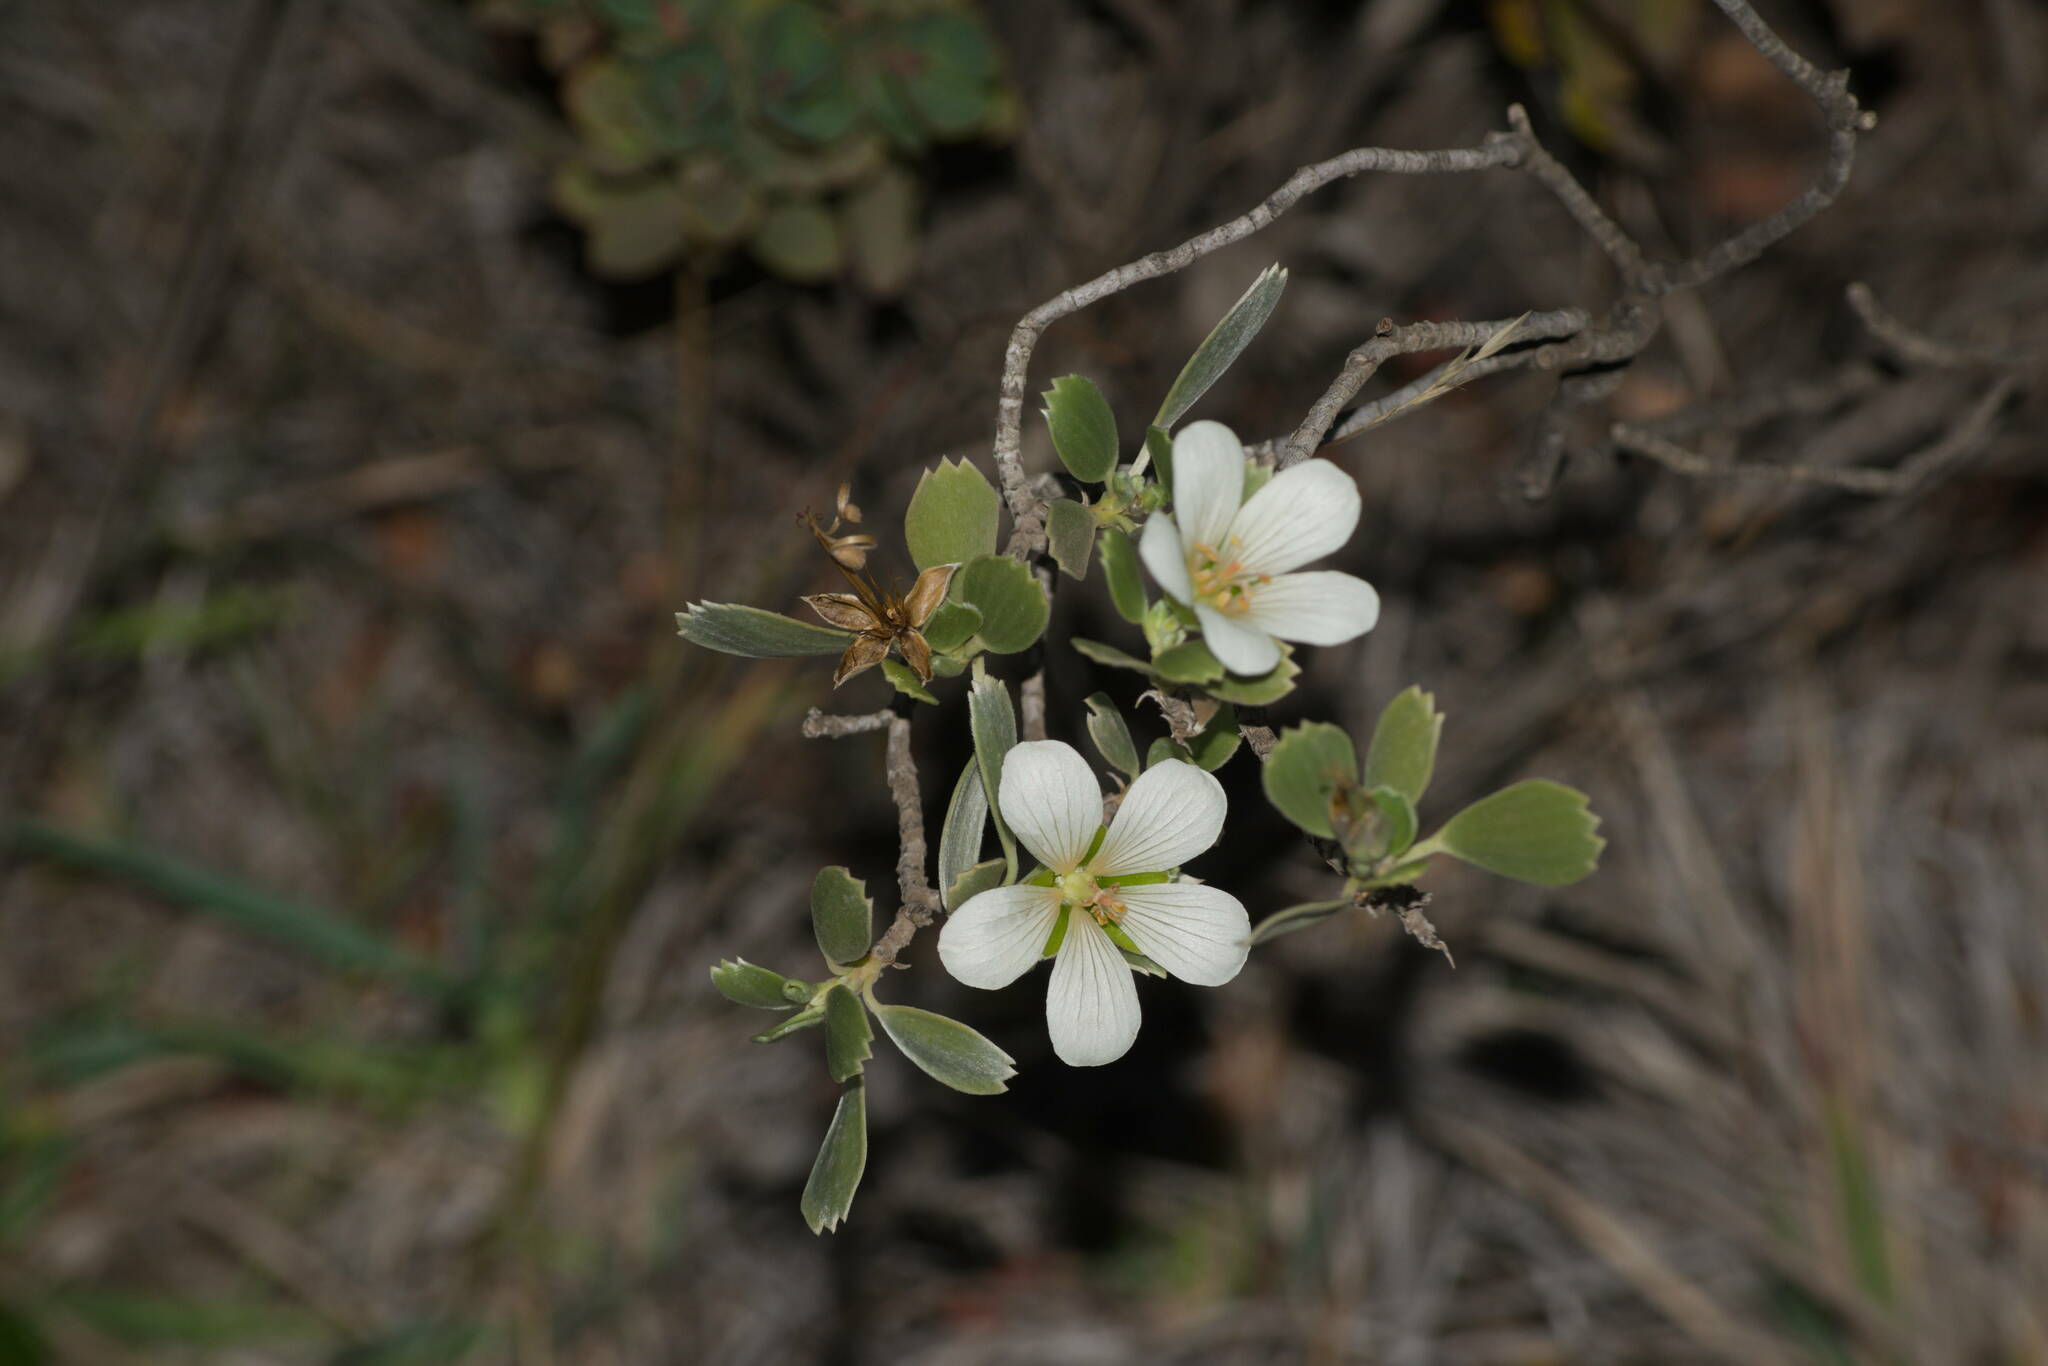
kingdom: Plantae
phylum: Tracheophyta
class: Magnoliopsida
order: Geraniales
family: Geraniaceae
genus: Geranium
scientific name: Geranium cuneatum
